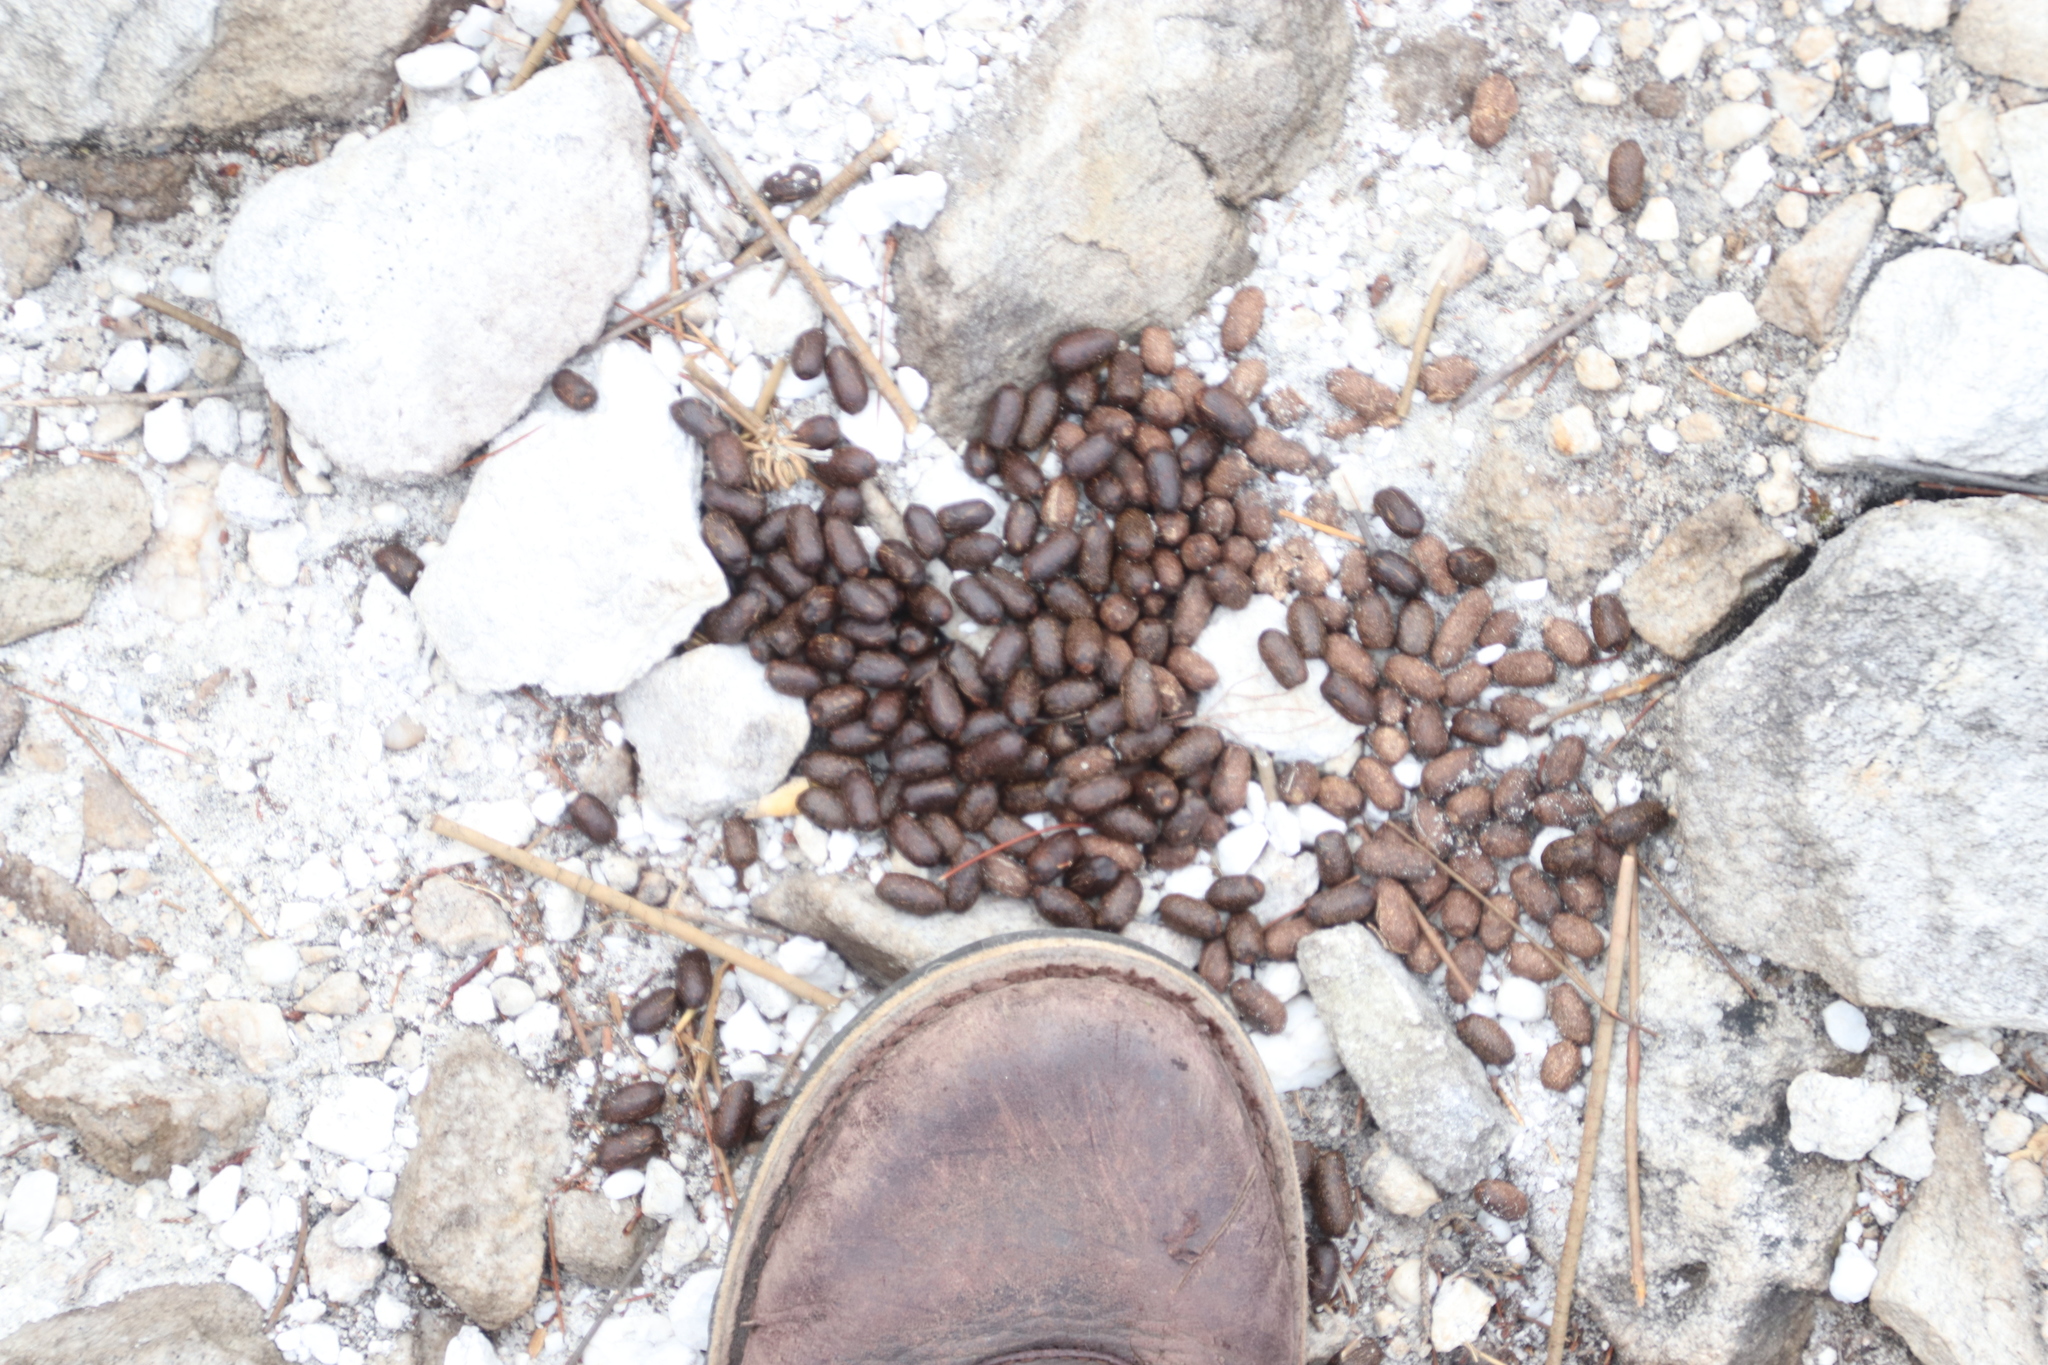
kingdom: Animalia
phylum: Chordata
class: Mammalia
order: Artiodactyla
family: Bovidae
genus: Oreotragus
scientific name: Oreotragus oreotragus
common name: Klipspringer
